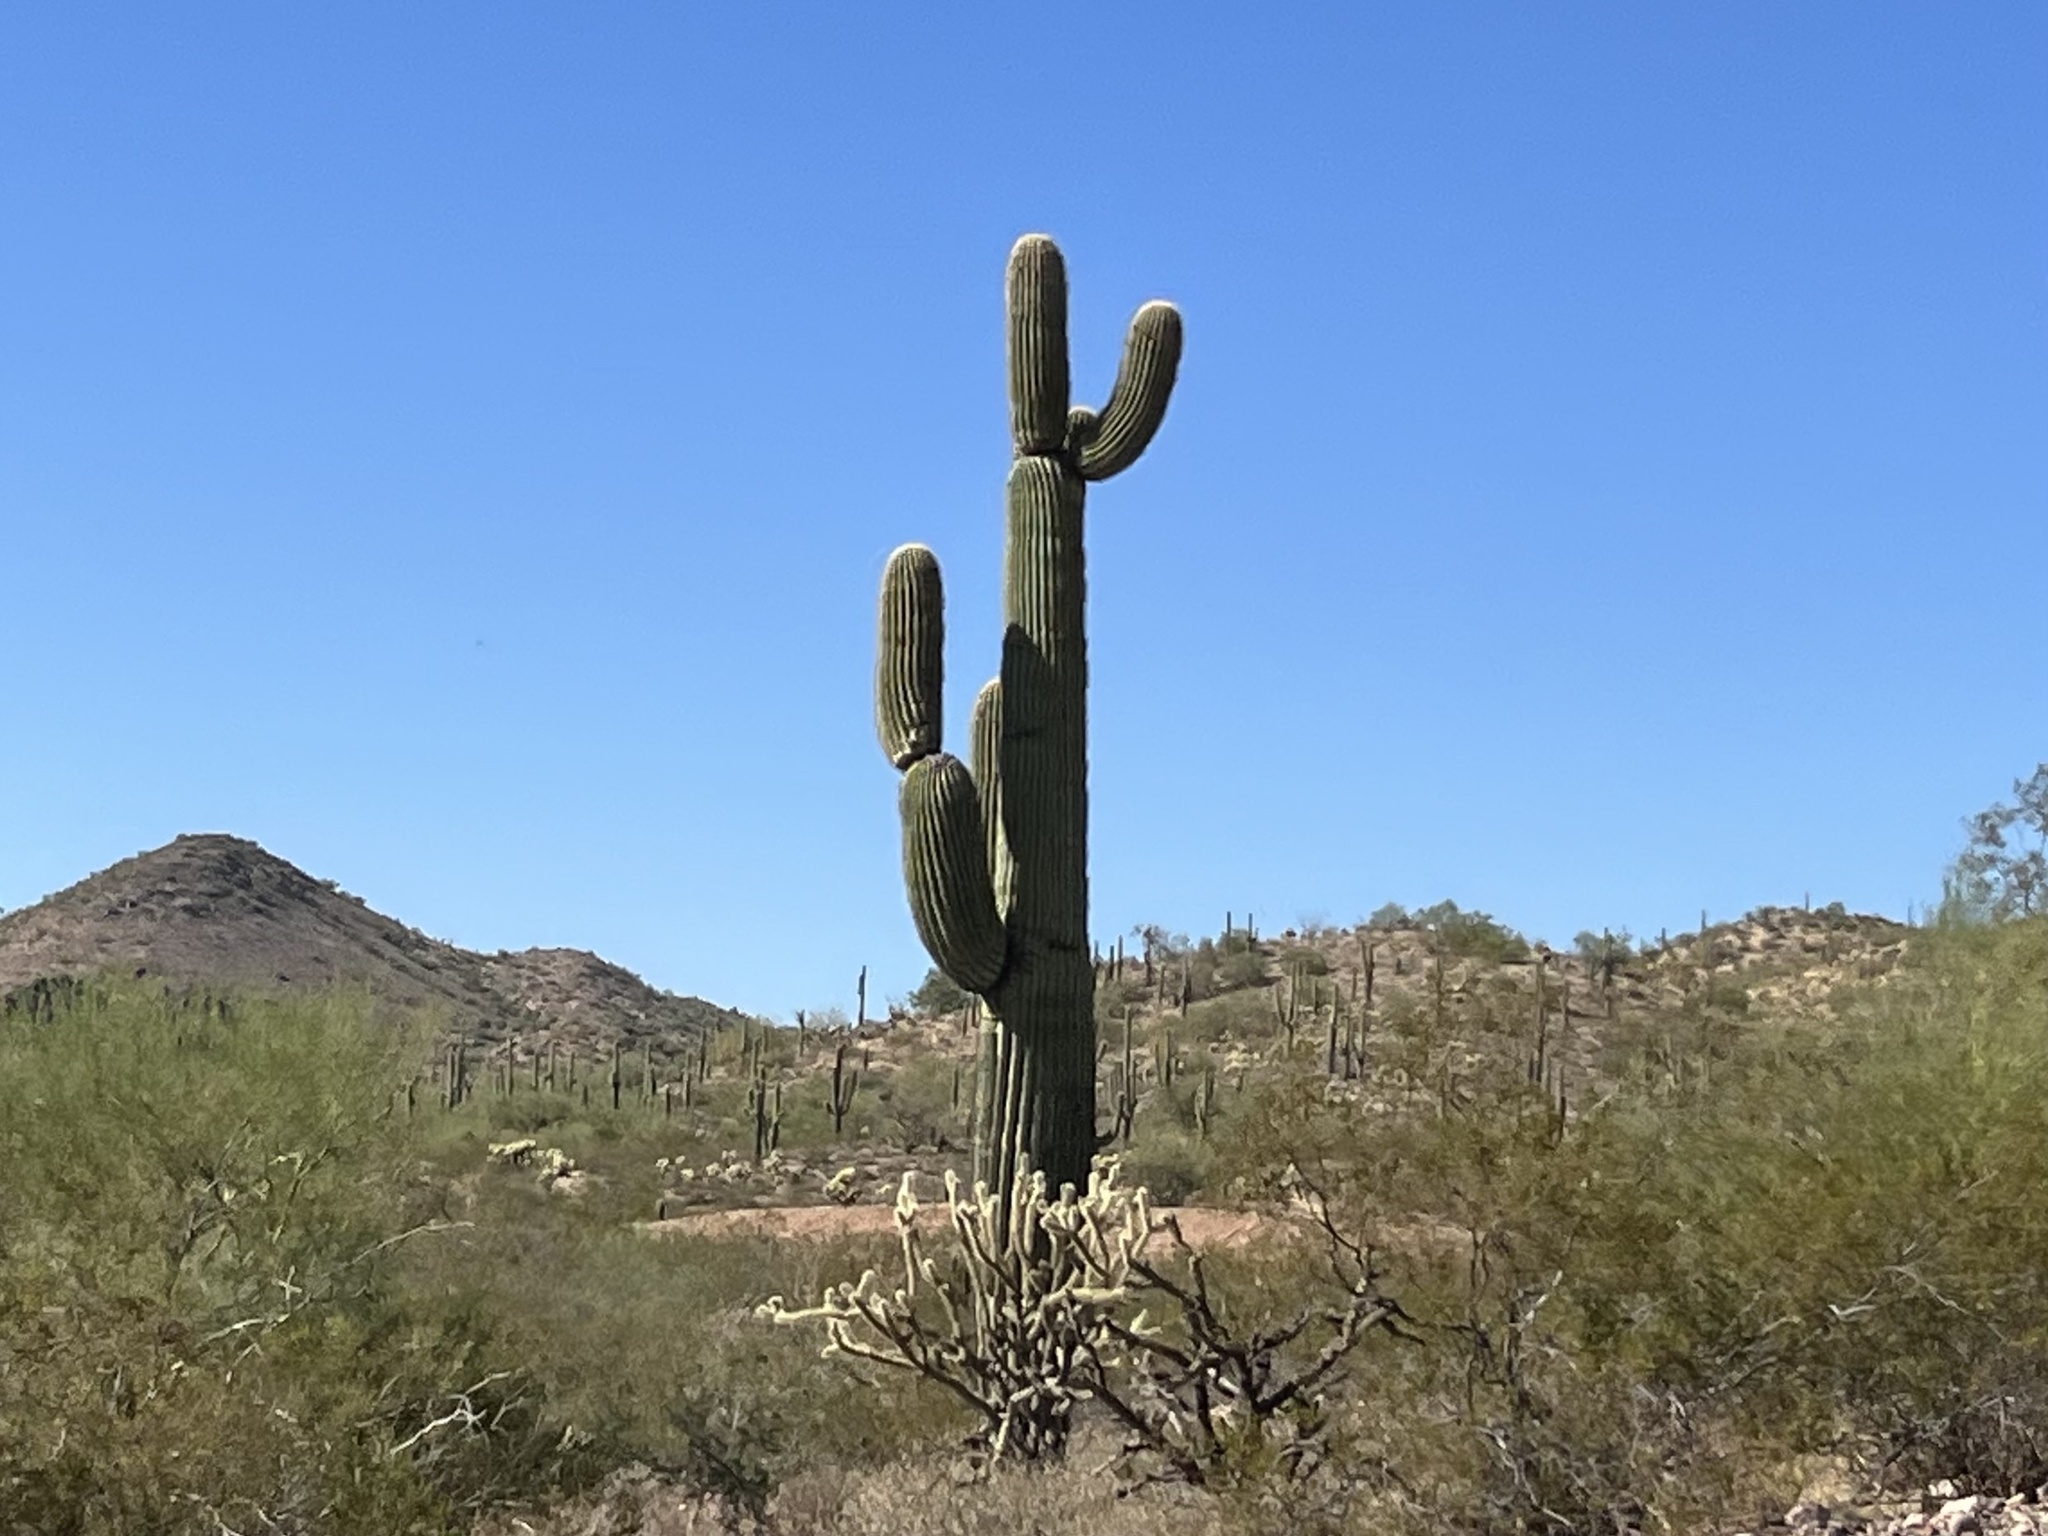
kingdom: Plantae
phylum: Tracheophyta
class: Magnoliopsida
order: Caryophyllales
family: Cactaceae
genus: Carnegiea
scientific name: Carnegiea gigantea
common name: Saguaro
